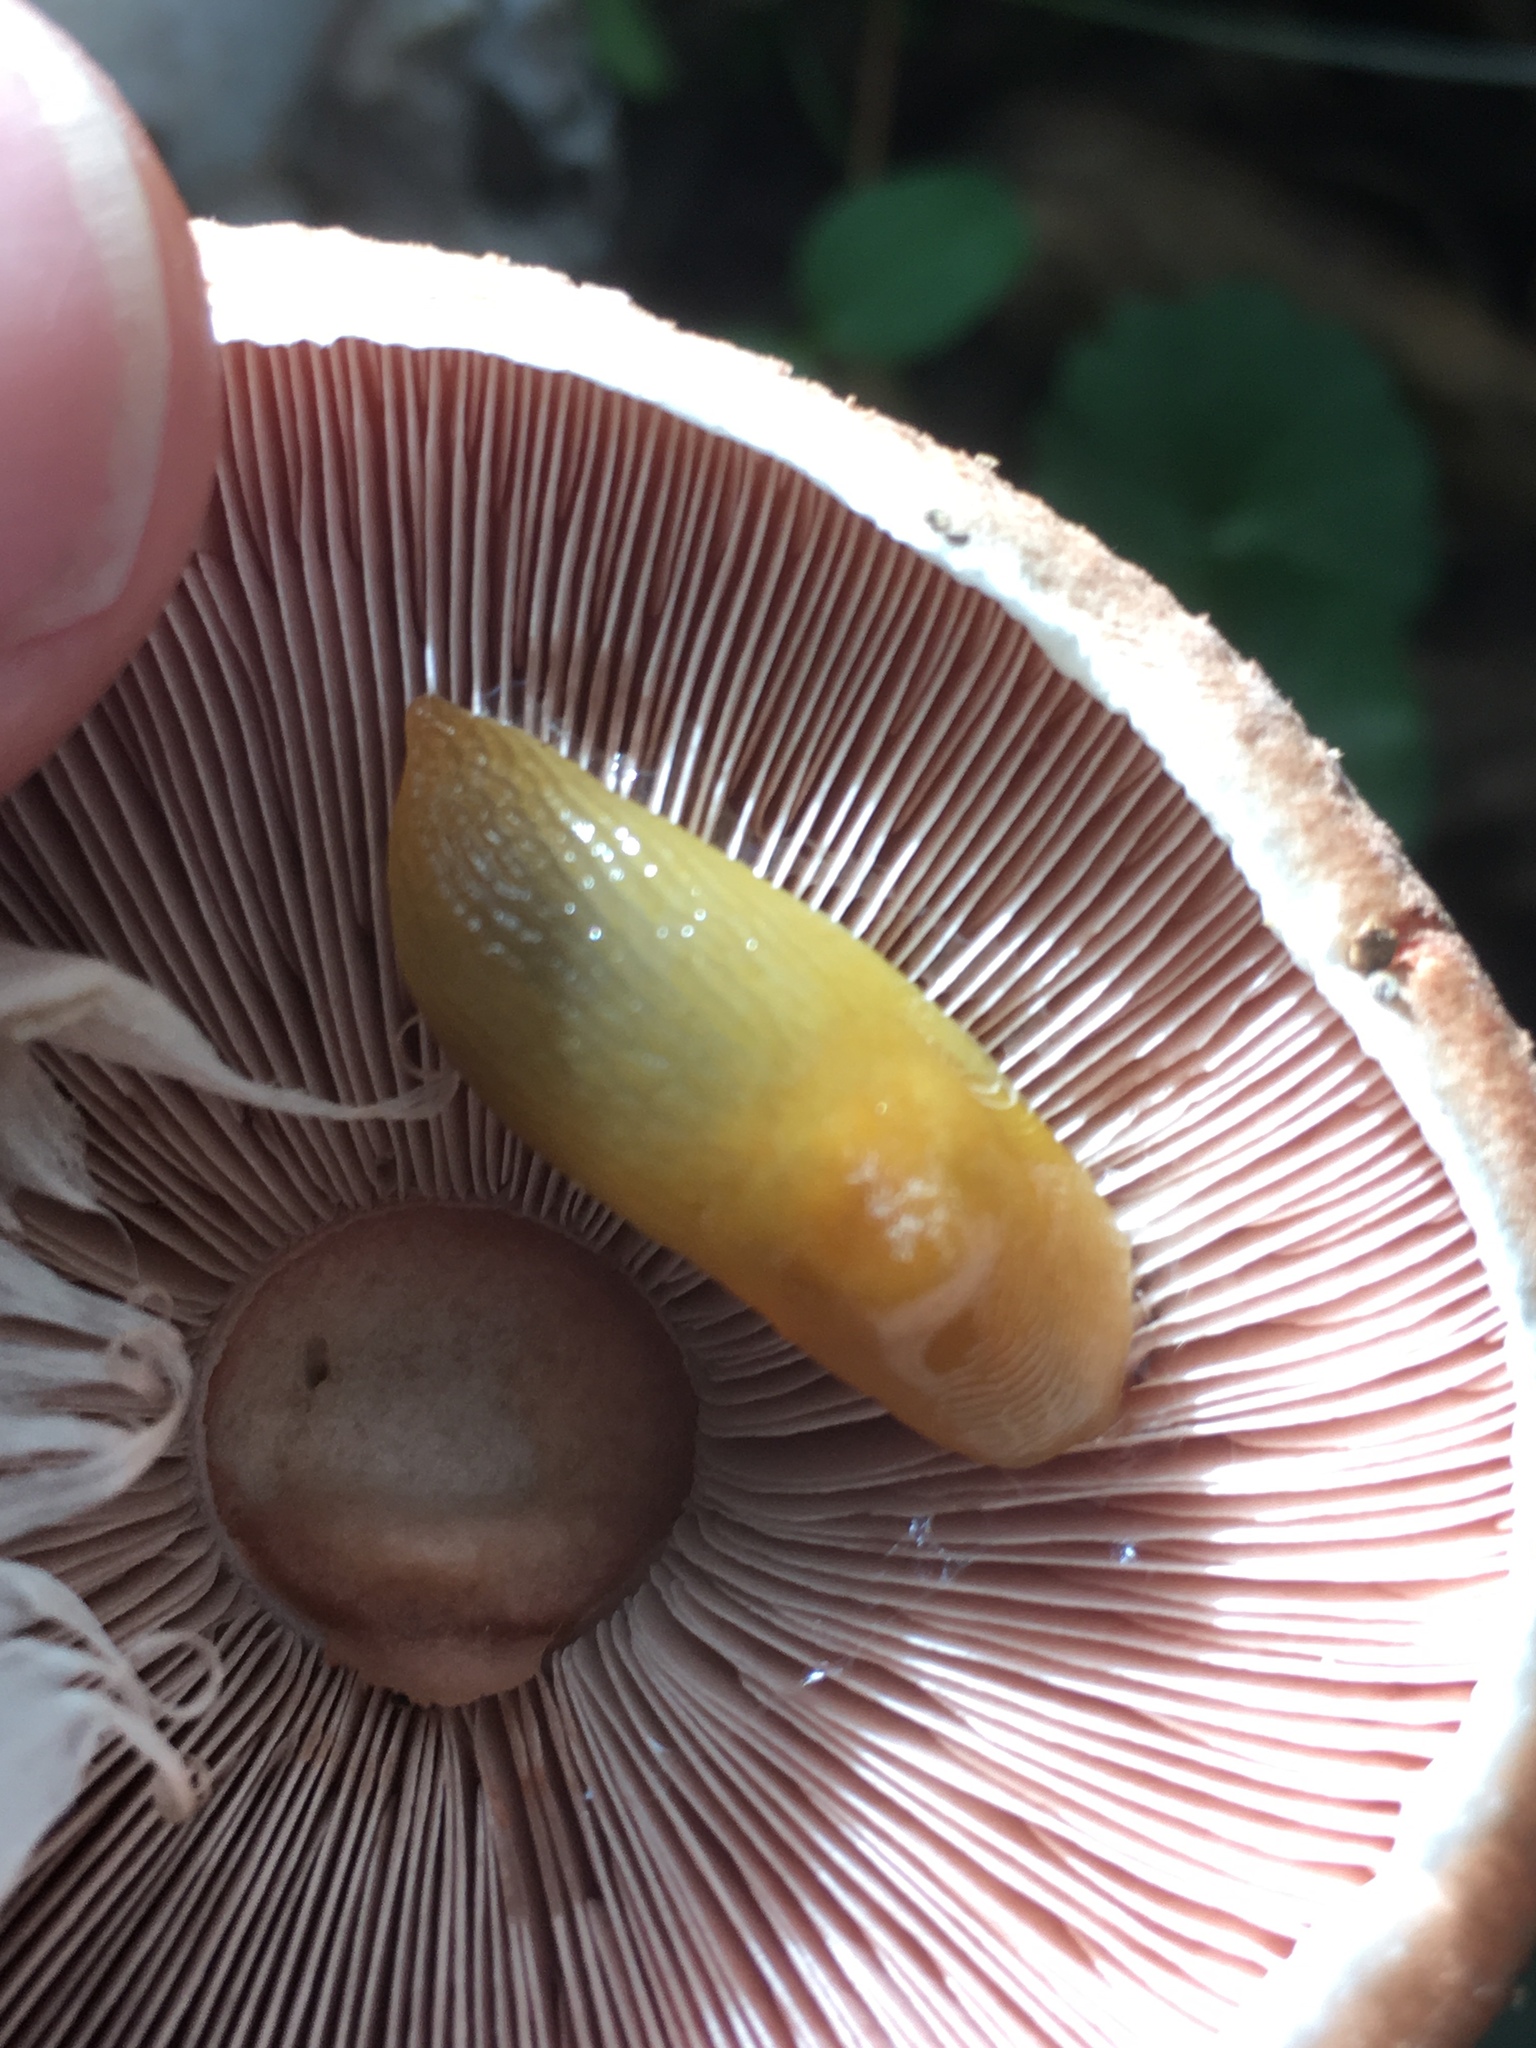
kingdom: Animalia
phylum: Mollusca
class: Gastropoda
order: Stylommatophora
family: Limacidae
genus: Malacolimax
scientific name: Malacolimax tenellus
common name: Lemon slug
